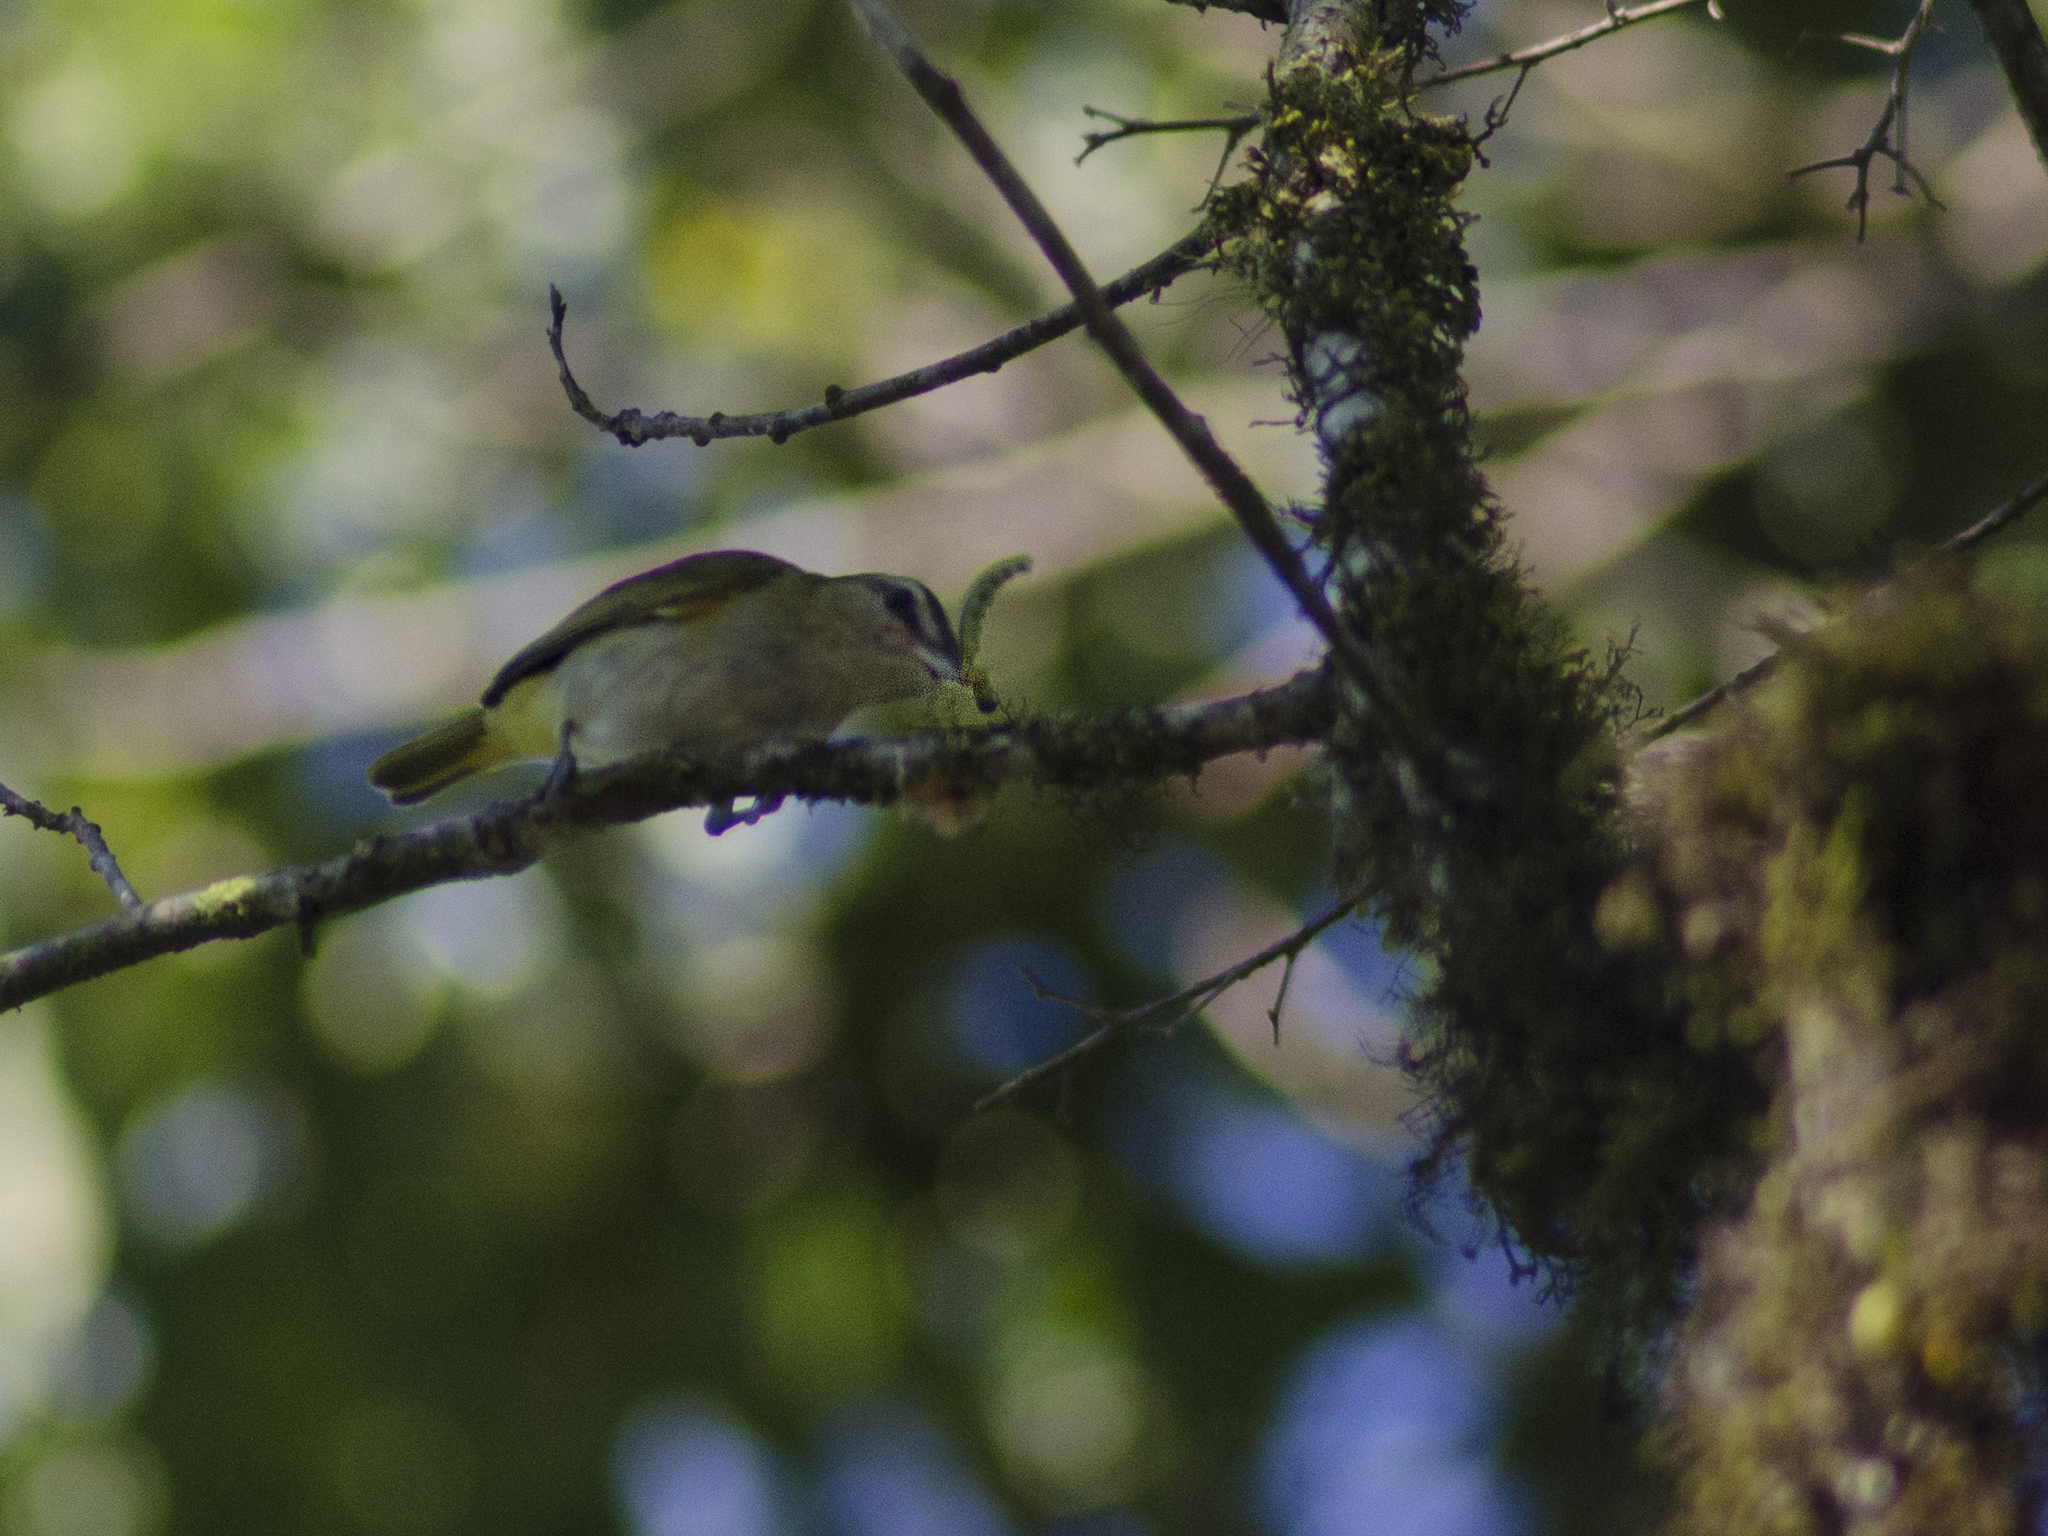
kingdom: Animalia
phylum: Chordata
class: Aves
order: Passeriformes
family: Vireonidae
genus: Vireo
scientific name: Vireo olivaceus
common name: Red-eyed vireo
